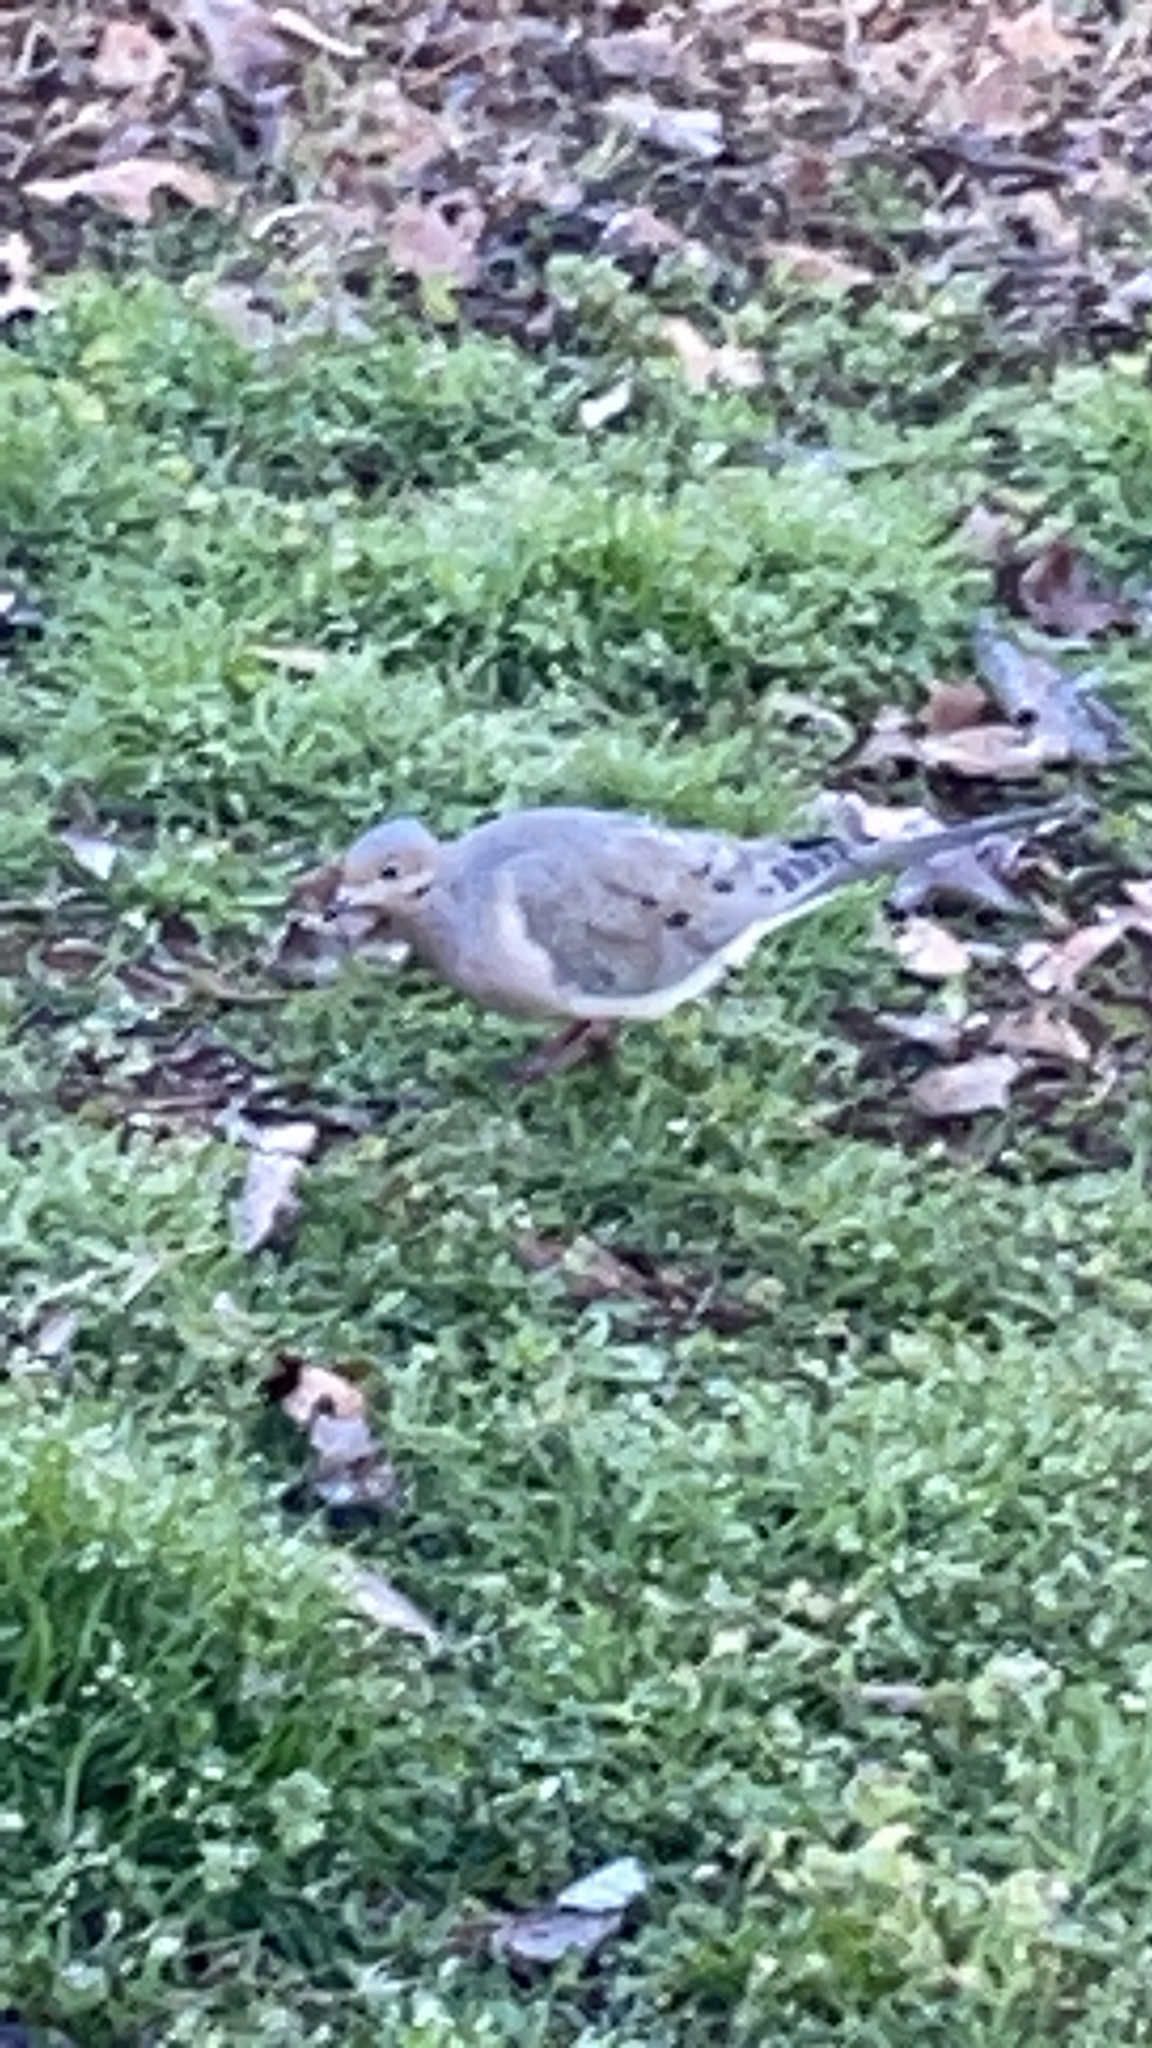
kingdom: Animalia
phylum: Chordata
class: Aves
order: Columbiformes
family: Columbidae
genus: Zenaida
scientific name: Zenaida macroura
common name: Mourning dove
